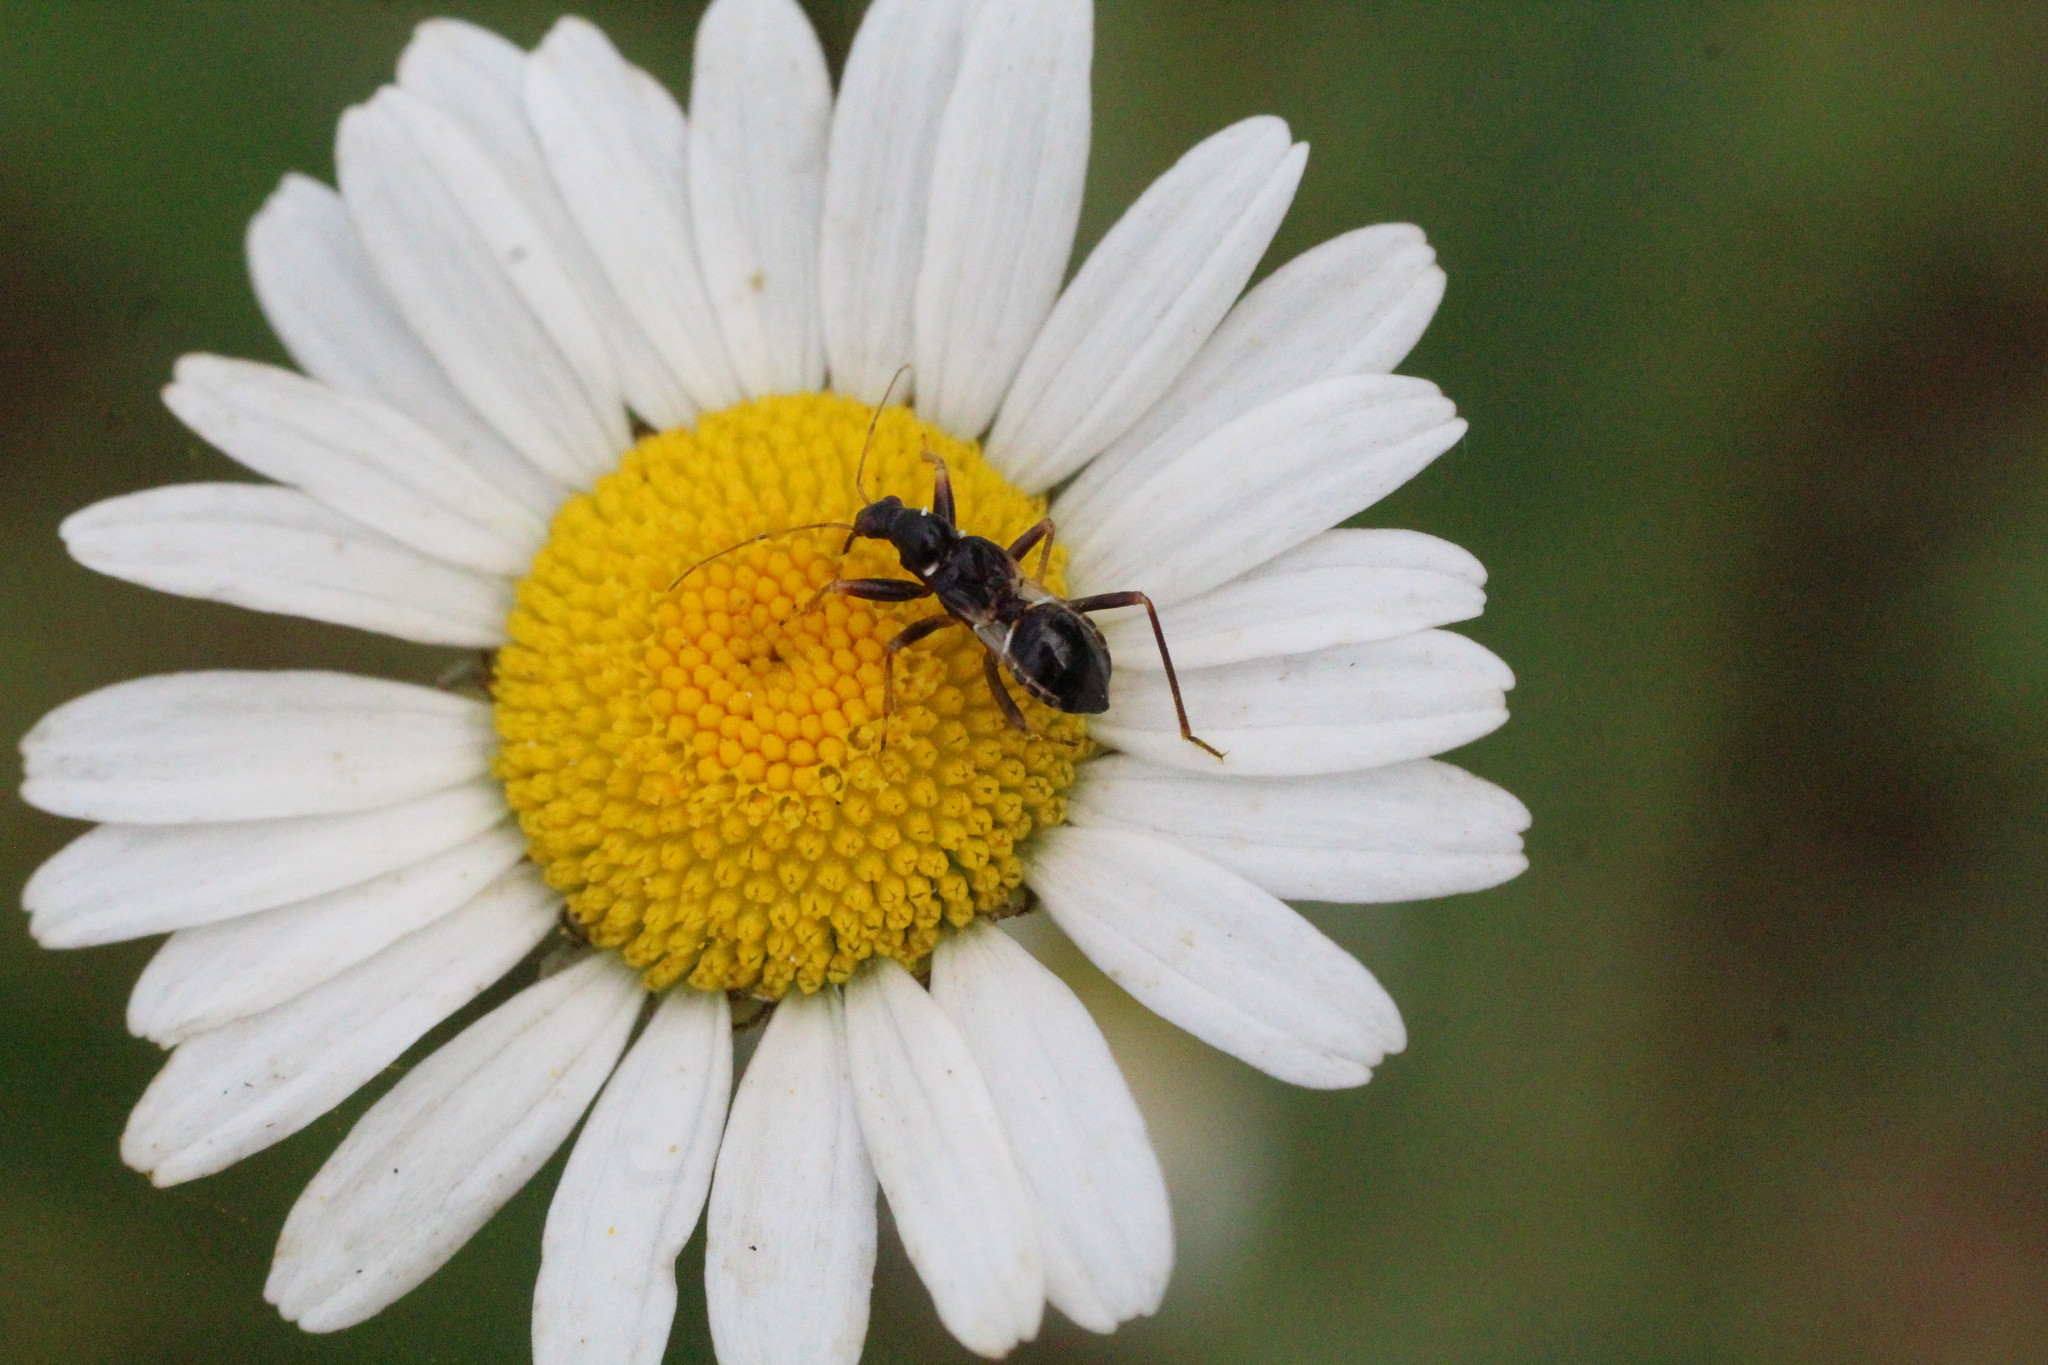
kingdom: Animalia
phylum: Arthropoda
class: Insecta
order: Hemiptera
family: Nabidae
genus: Himacerus
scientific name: Himacerus mirmicoides
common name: Ant damsel bug
